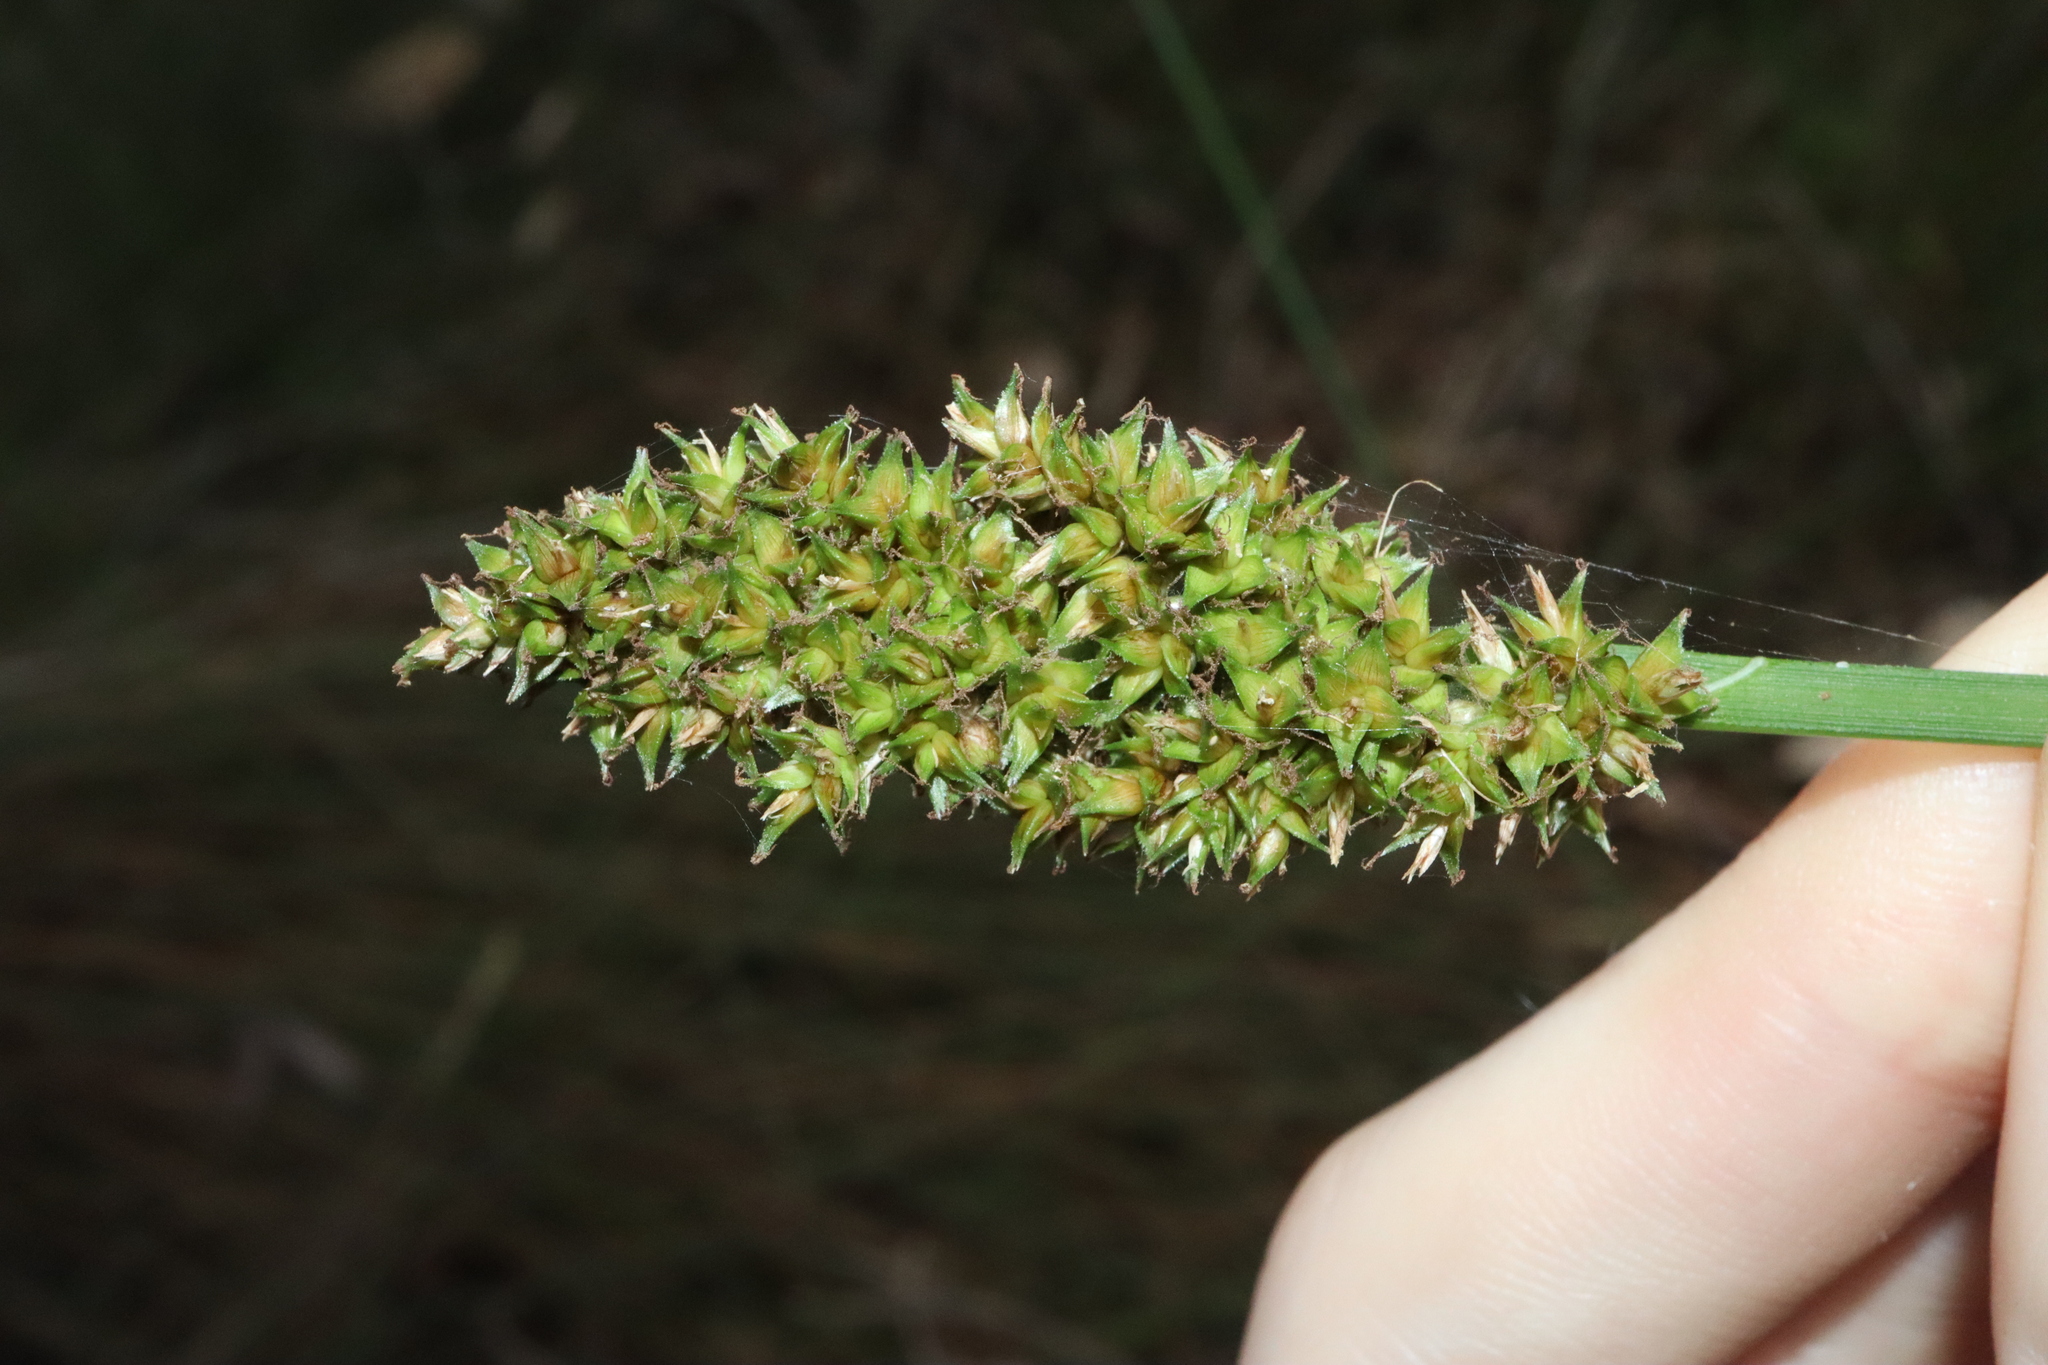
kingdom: Plantae
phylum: Tracheophyta
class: Liliopsida
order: Poales
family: Cyperaceae
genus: Carex
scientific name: Carex appressa
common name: Tussock sedge
